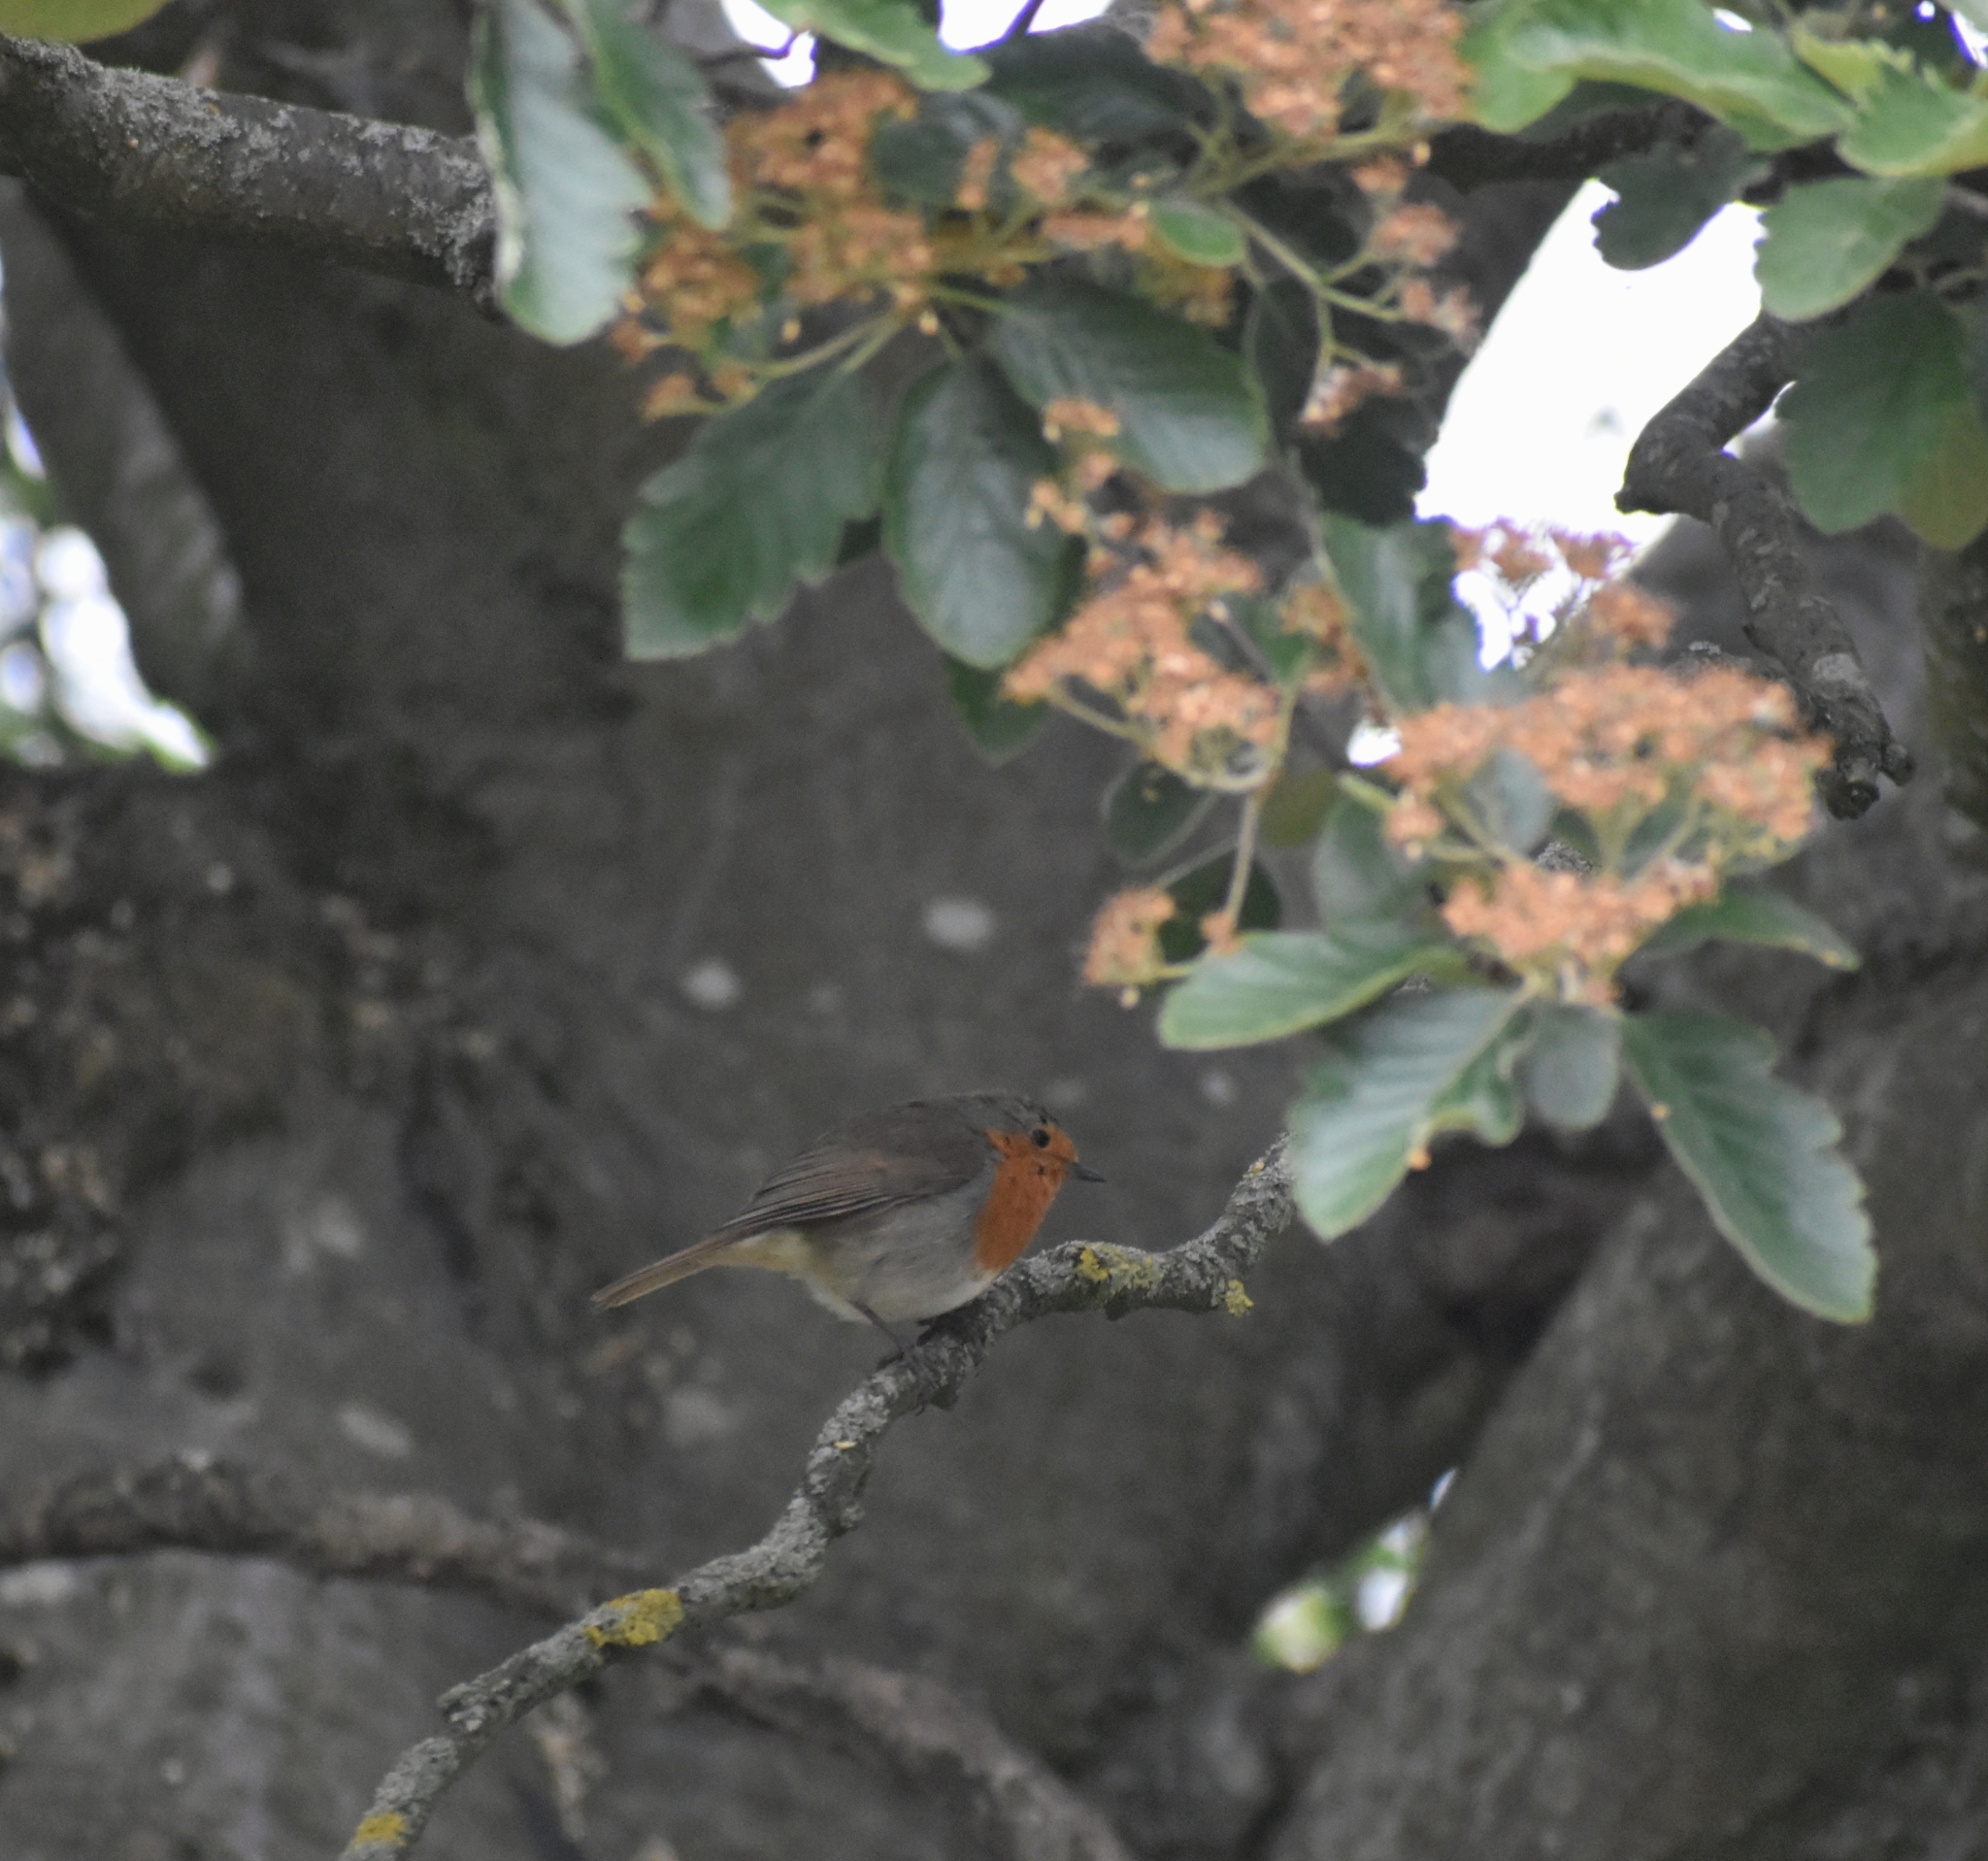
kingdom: Animalia
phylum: Chordata
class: Aves
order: Passeriformes
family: Muscicapidae
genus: Erithacus
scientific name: Erithacus rubecula
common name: European robin
